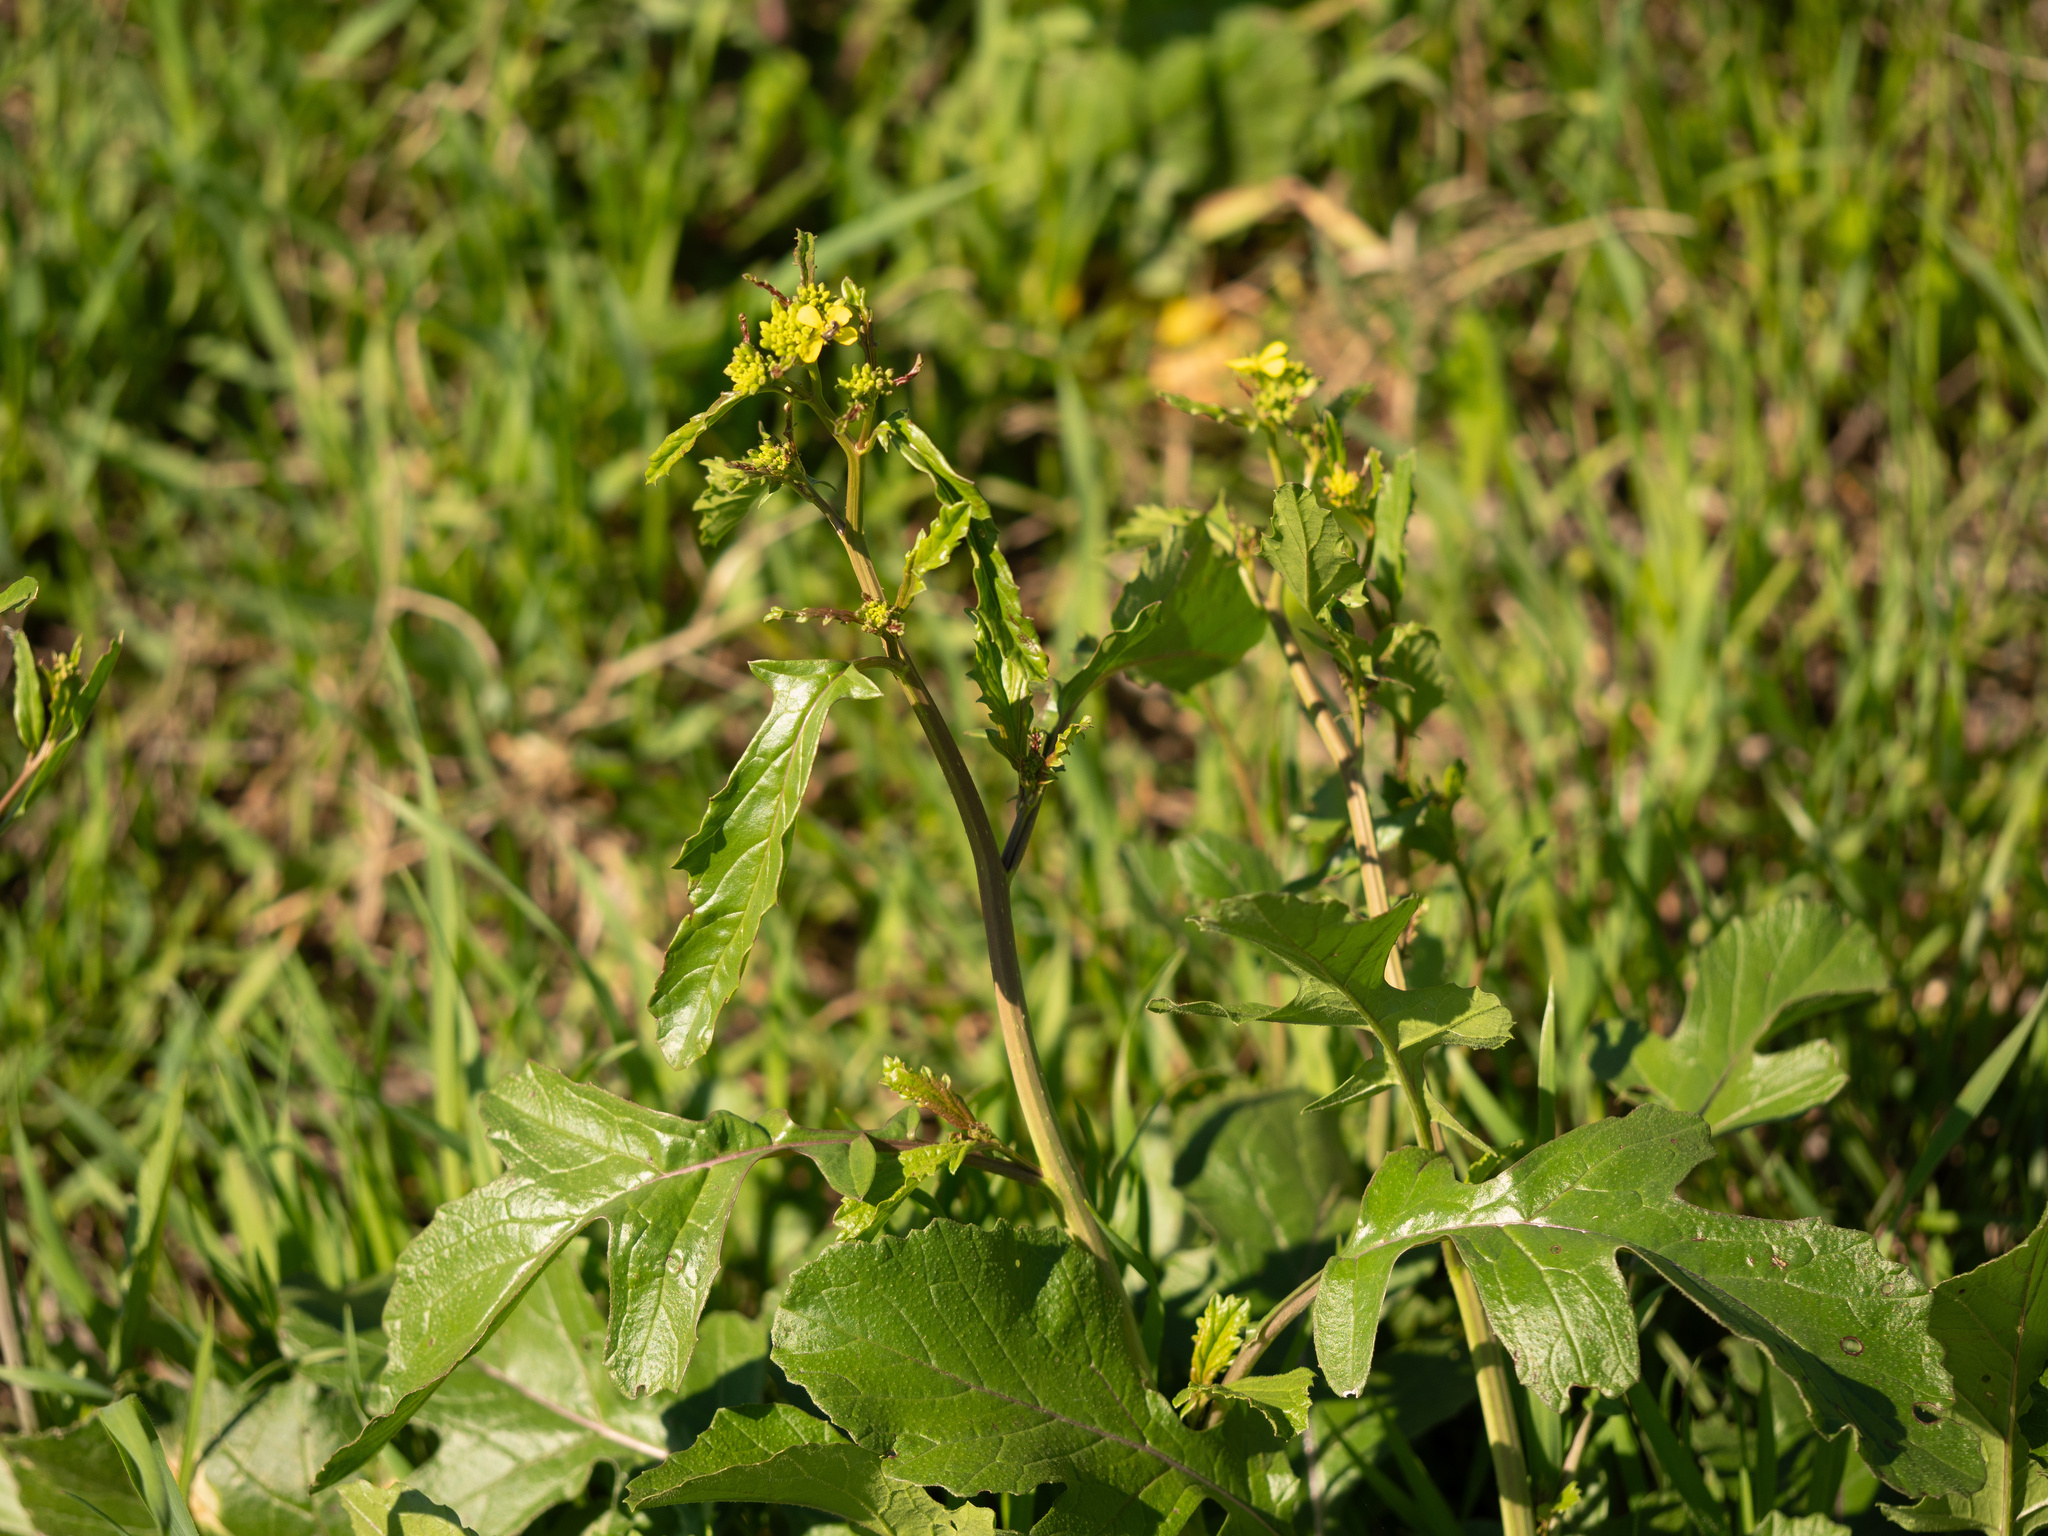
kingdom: Plantae
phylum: Tracheophyta
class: Magnoliopsida
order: Brassicales
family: Brassicaceae
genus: Rapistrum
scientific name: Rapistrum rugosum
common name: Annual bastardcabbage
